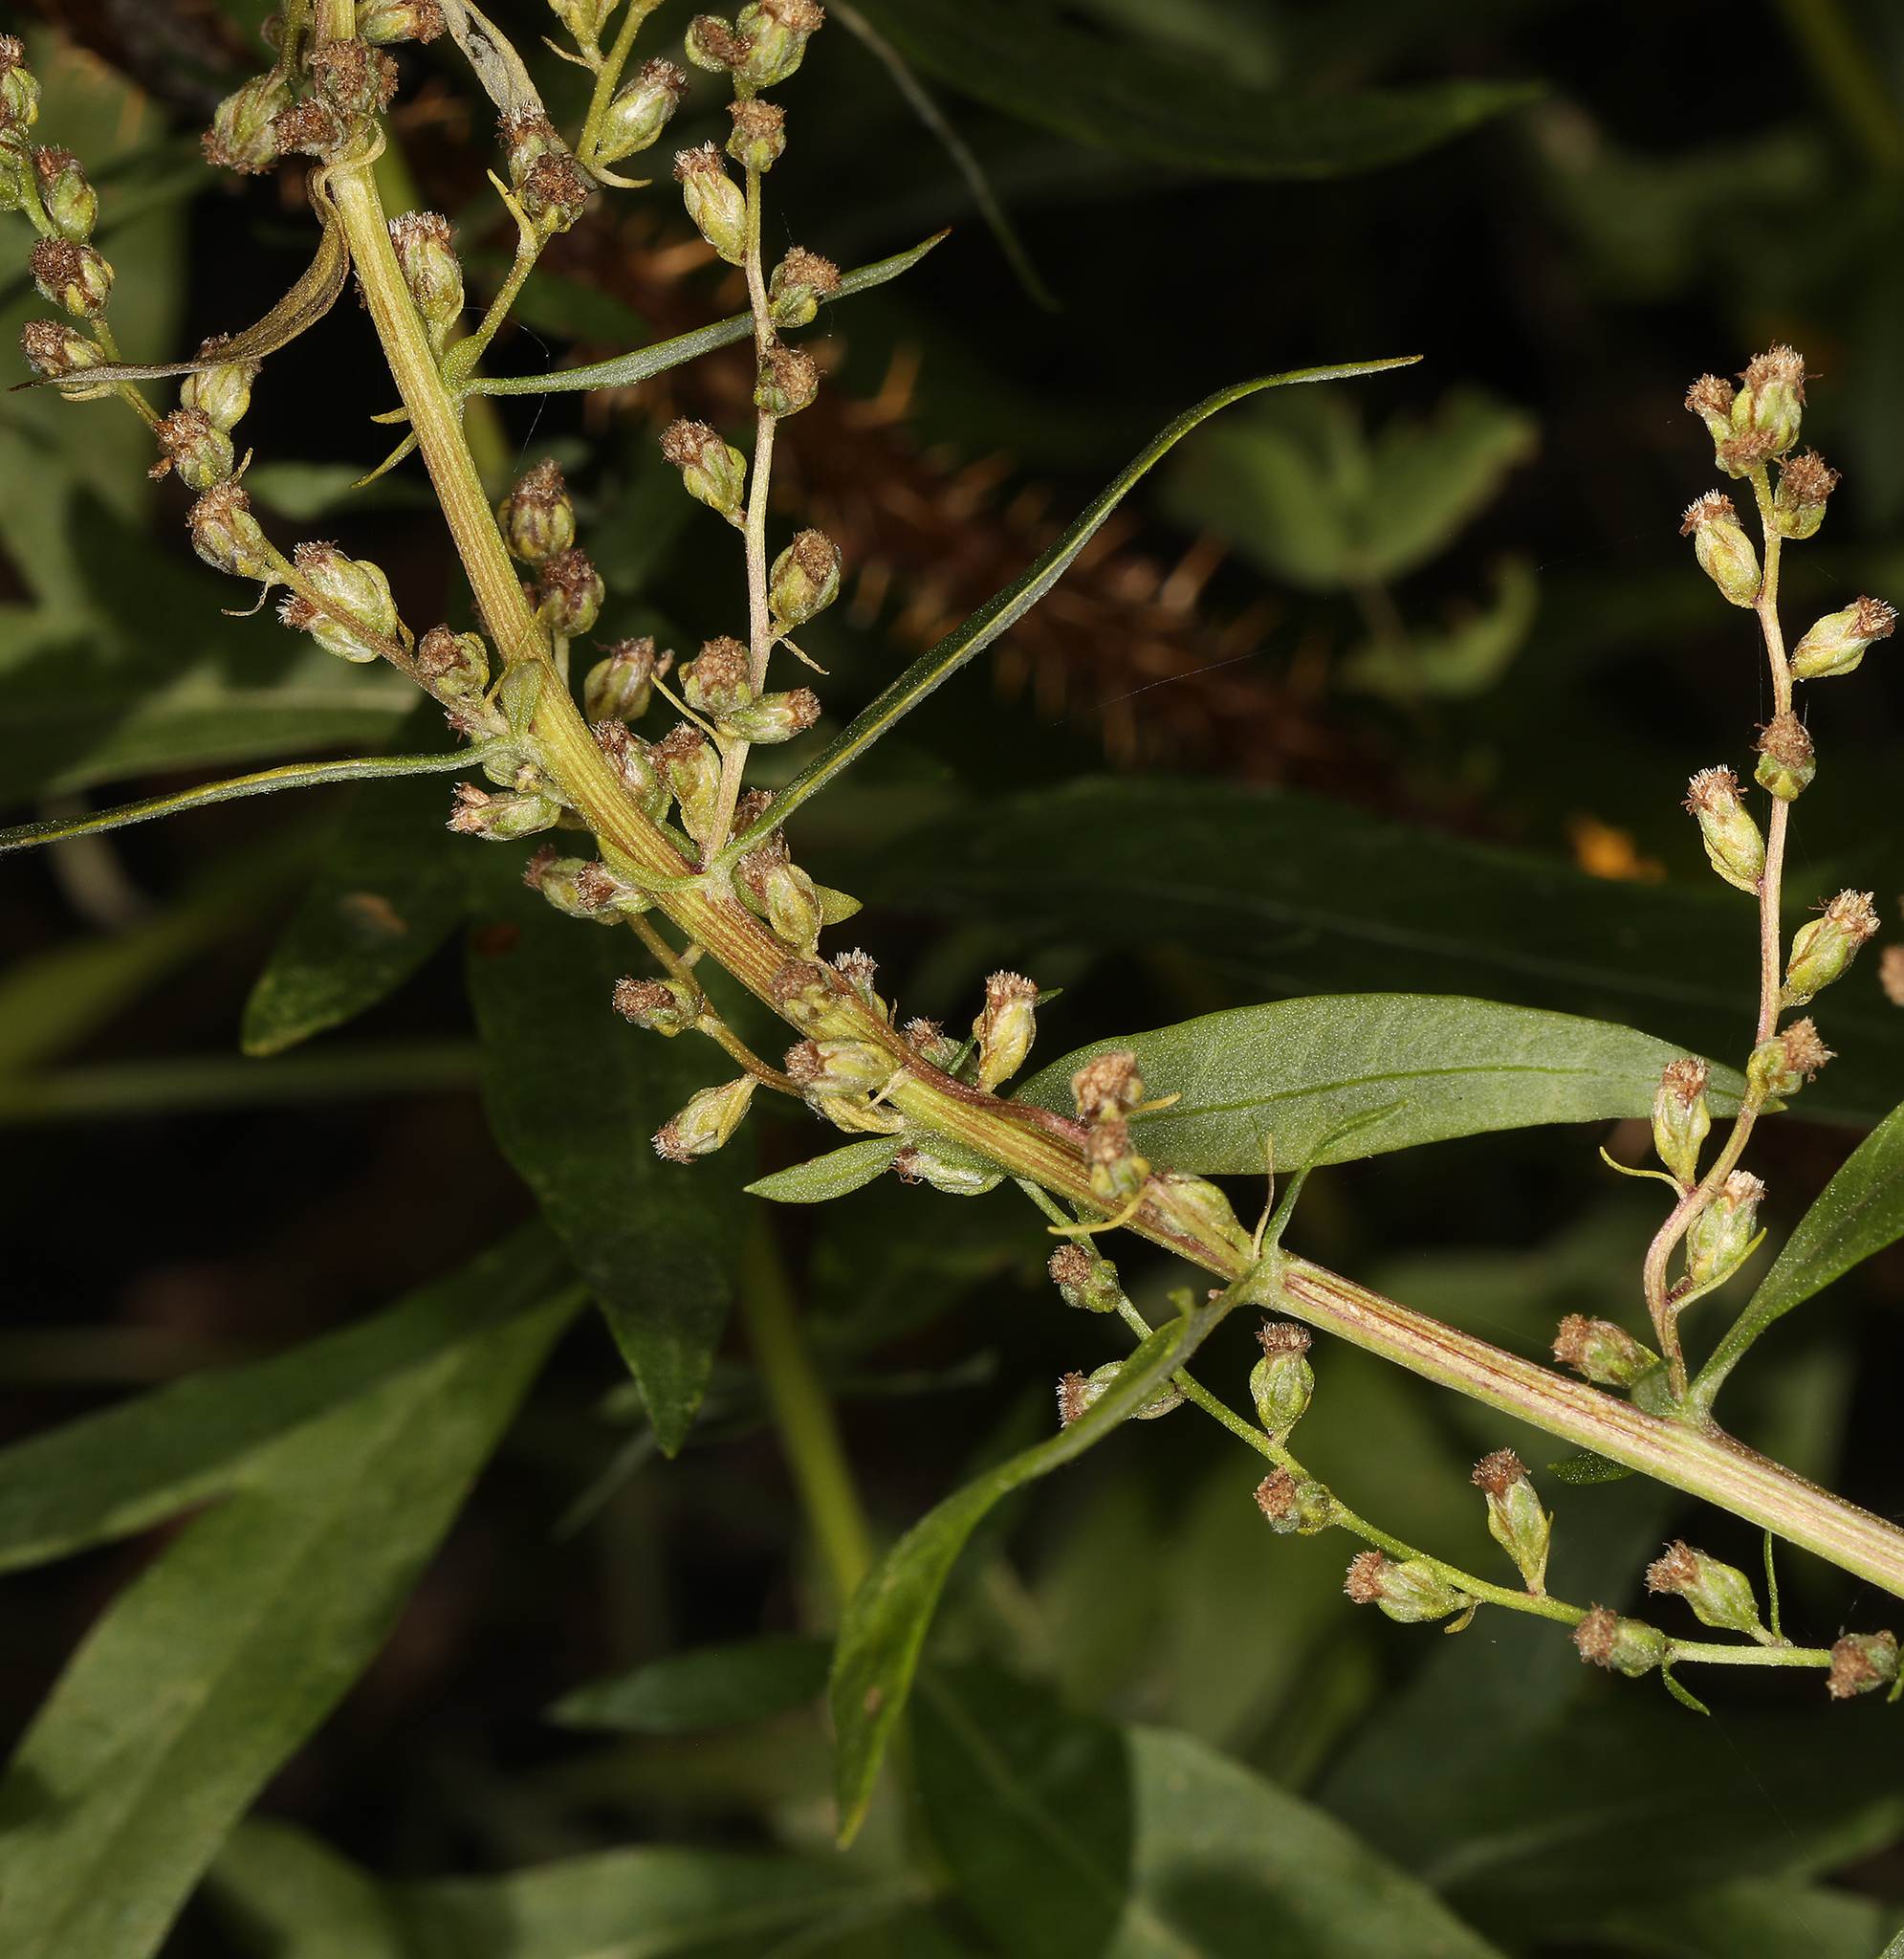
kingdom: Plantae
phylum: Tracheophyta
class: Magnoliopsida
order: Asterales
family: Asteraceae
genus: Artemisia
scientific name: Artemisia douglasiana
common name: Northwest mugwort
